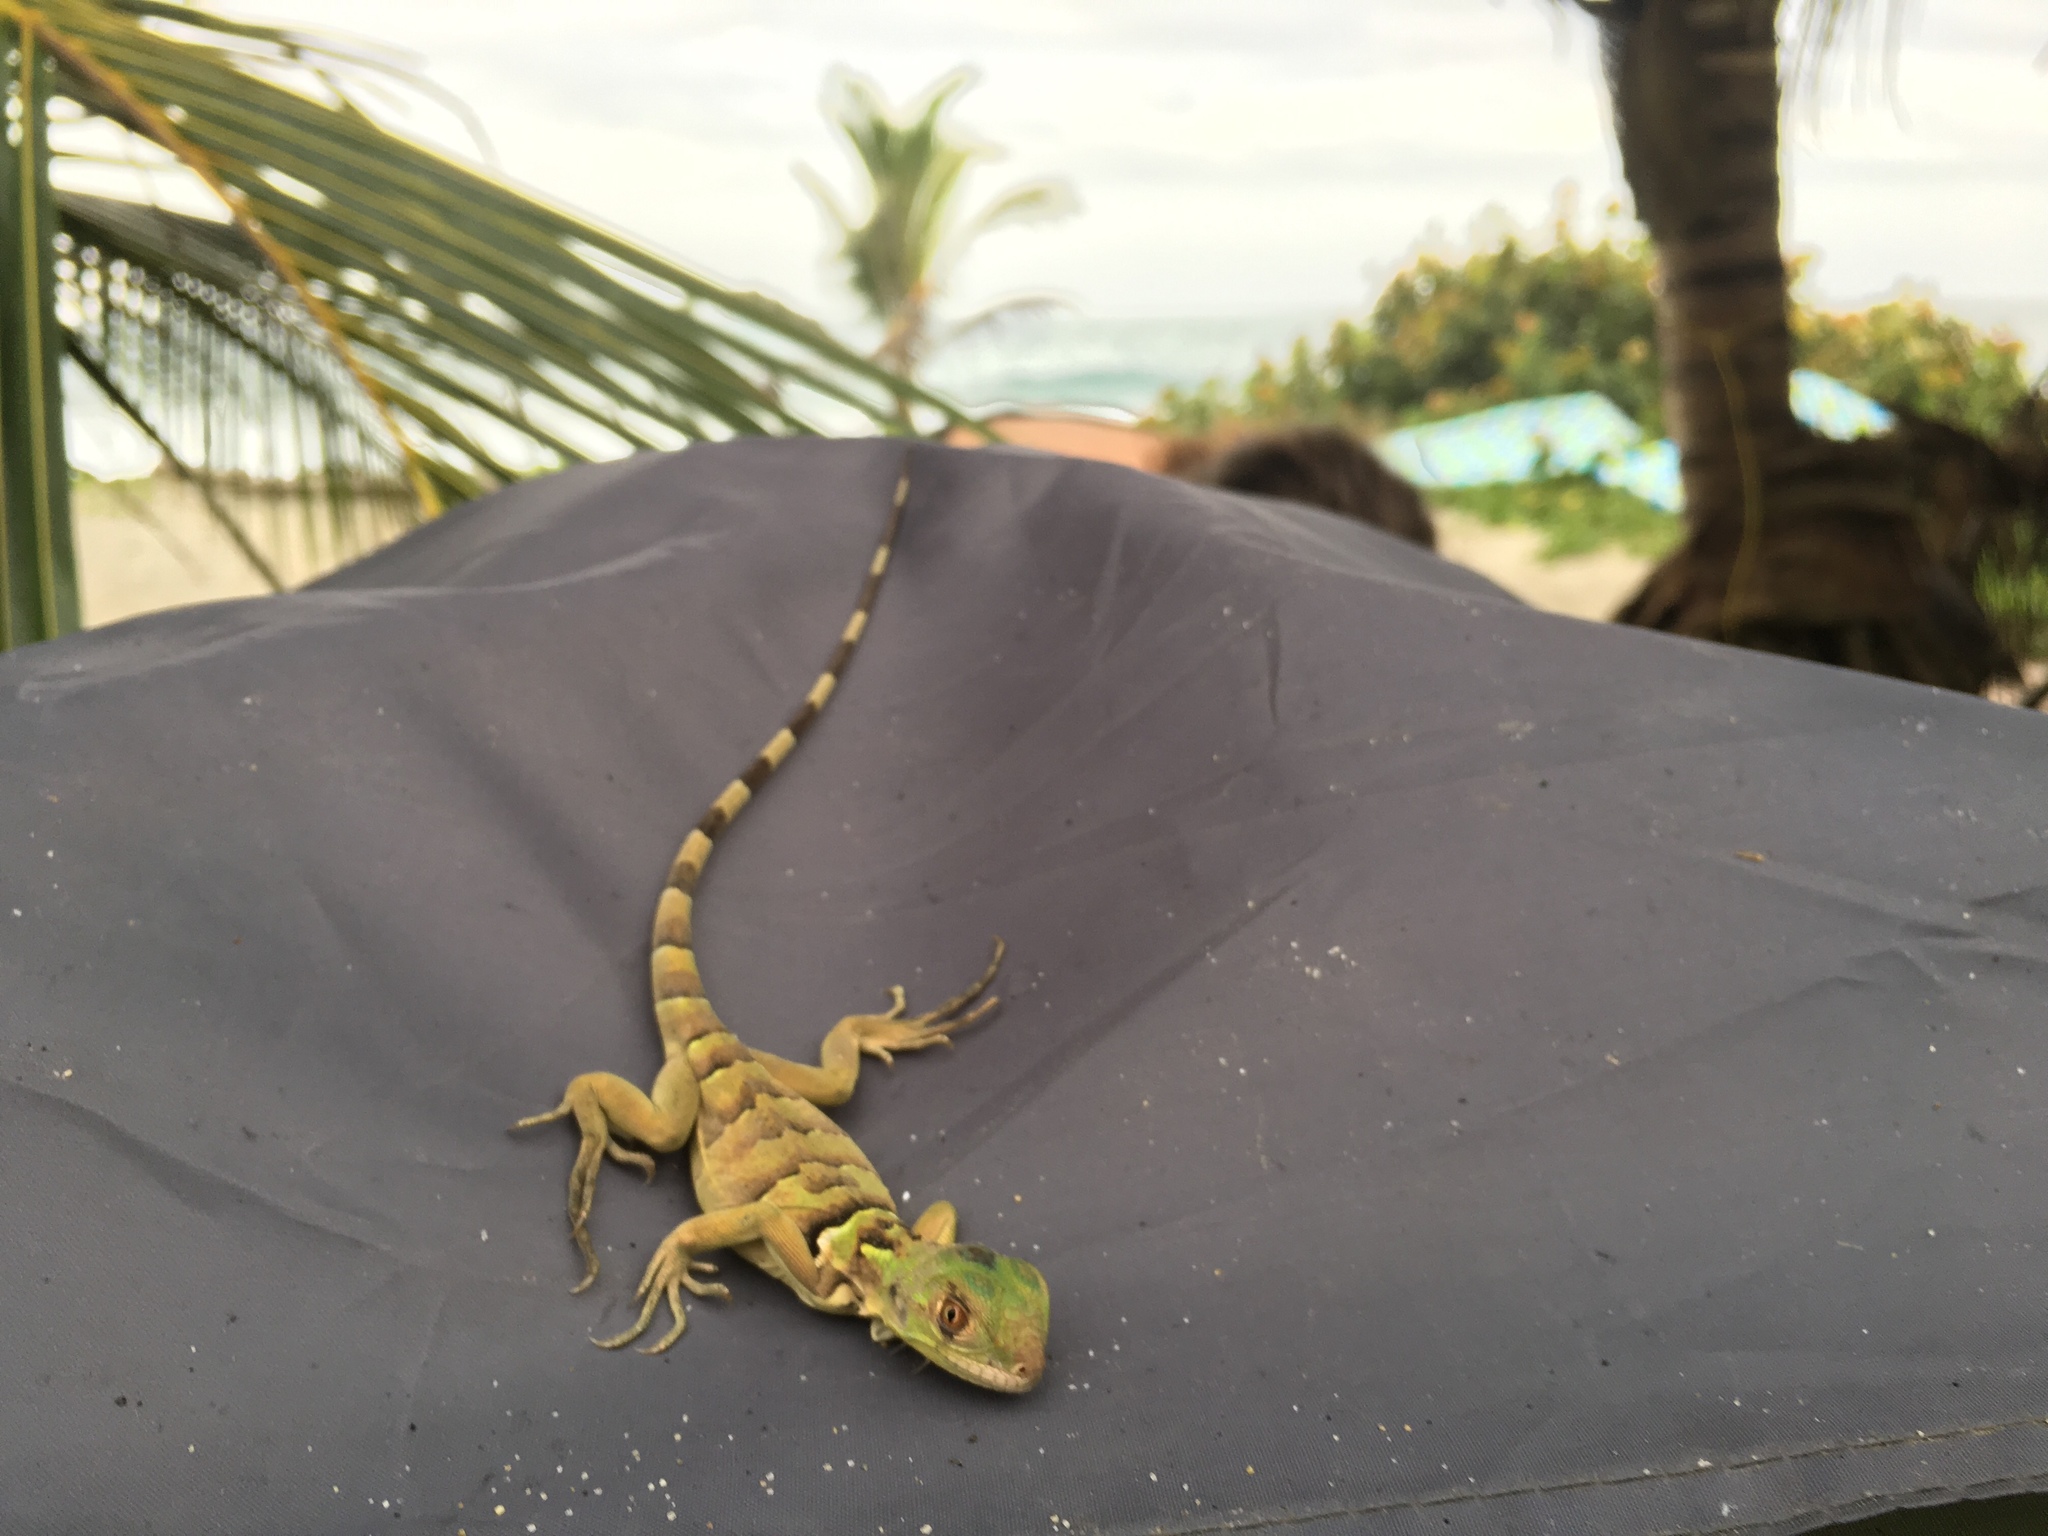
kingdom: Animalia
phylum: Chordata
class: Squamata
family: Iguanidae
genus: Iguana
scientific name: Iguana iguana
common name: Green iguana
